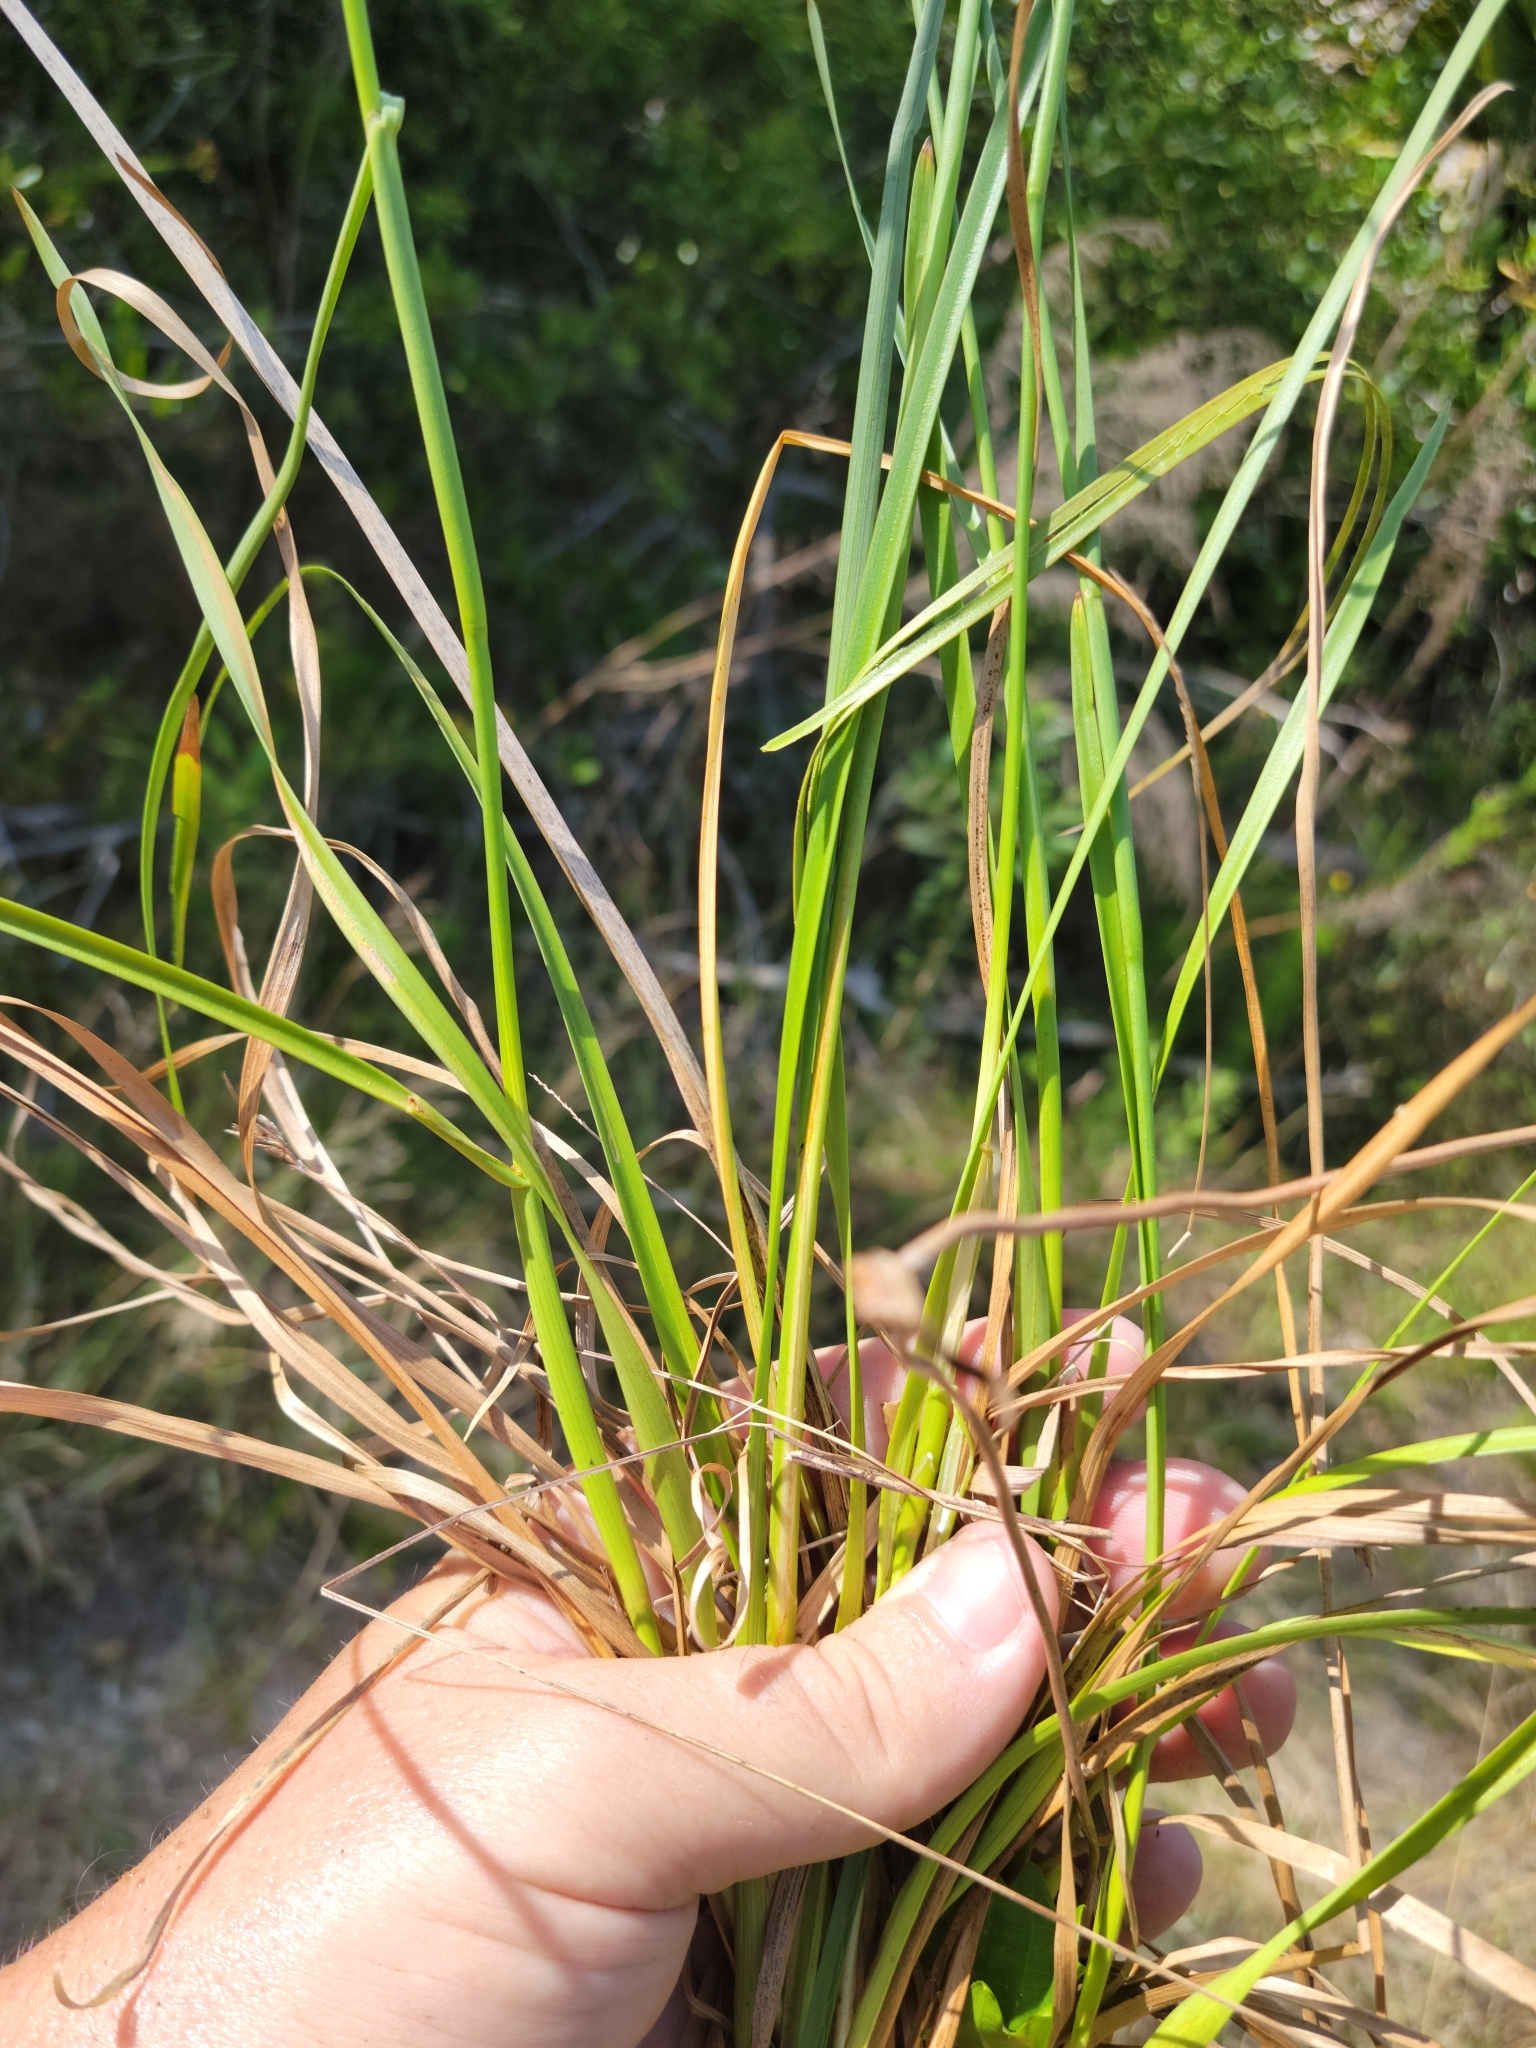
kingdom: Plantae
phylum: Tracheophyta
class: Liliopsida
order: Poales
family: Juncaceae
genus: Juncus
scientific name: Juncus biflorus
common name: Two-flowered rush
